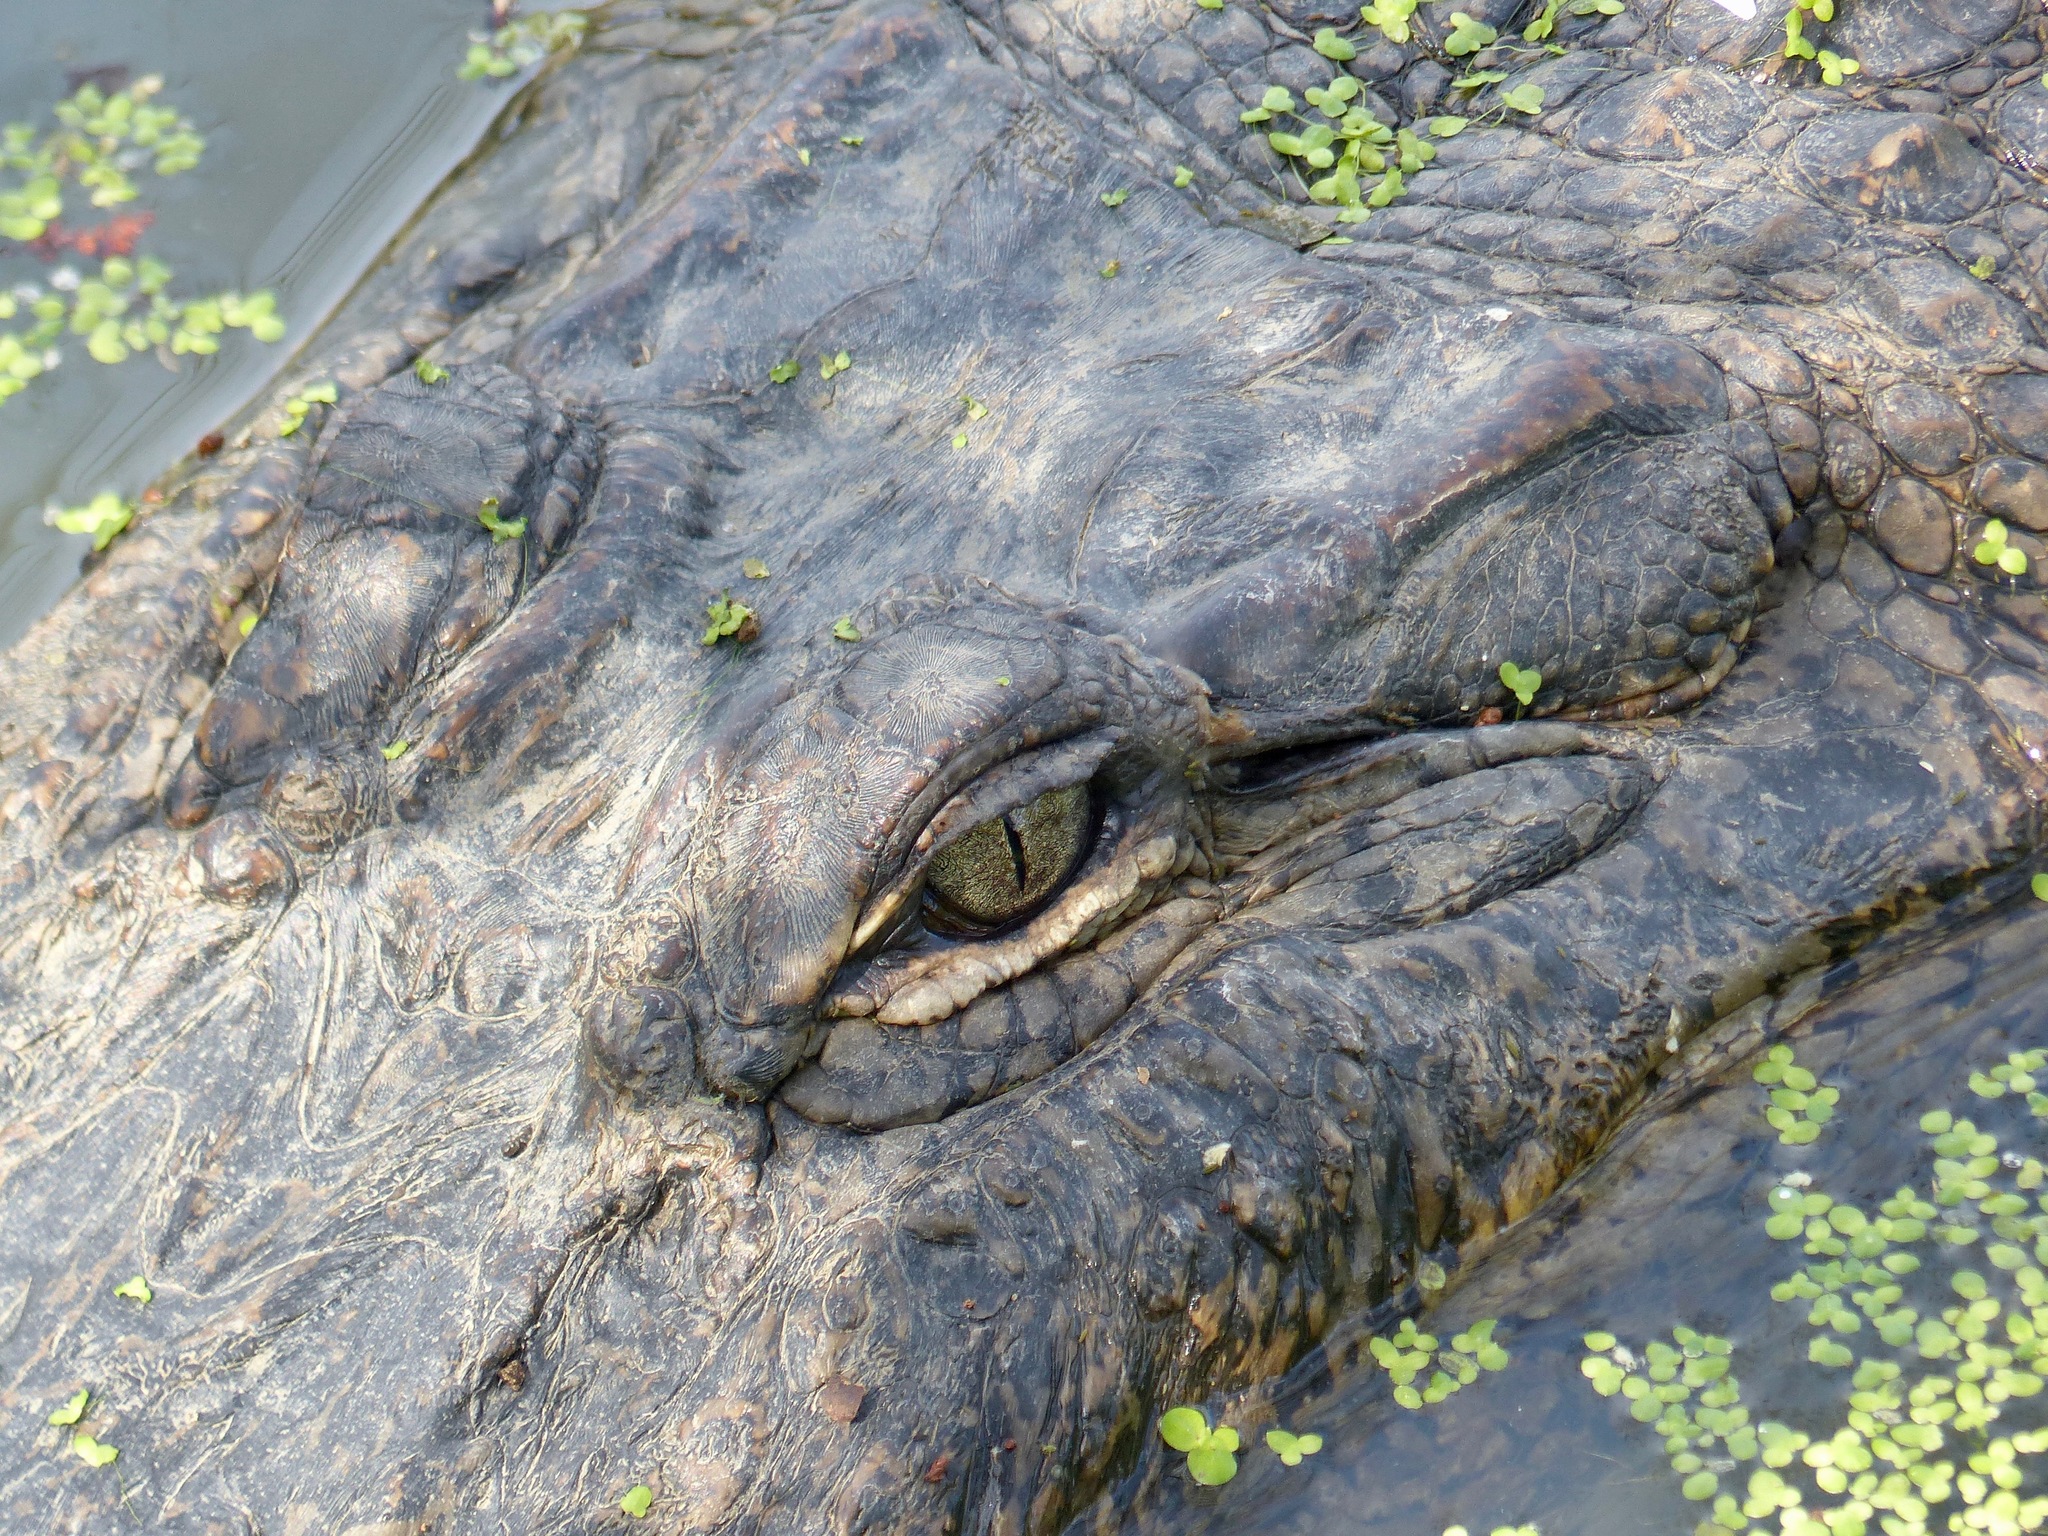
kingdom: Animalia
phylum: Chordata
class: Crocodylia
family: Alligatoridae
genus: Alligator
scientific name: Alligator mississippiensis
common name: American alligator
